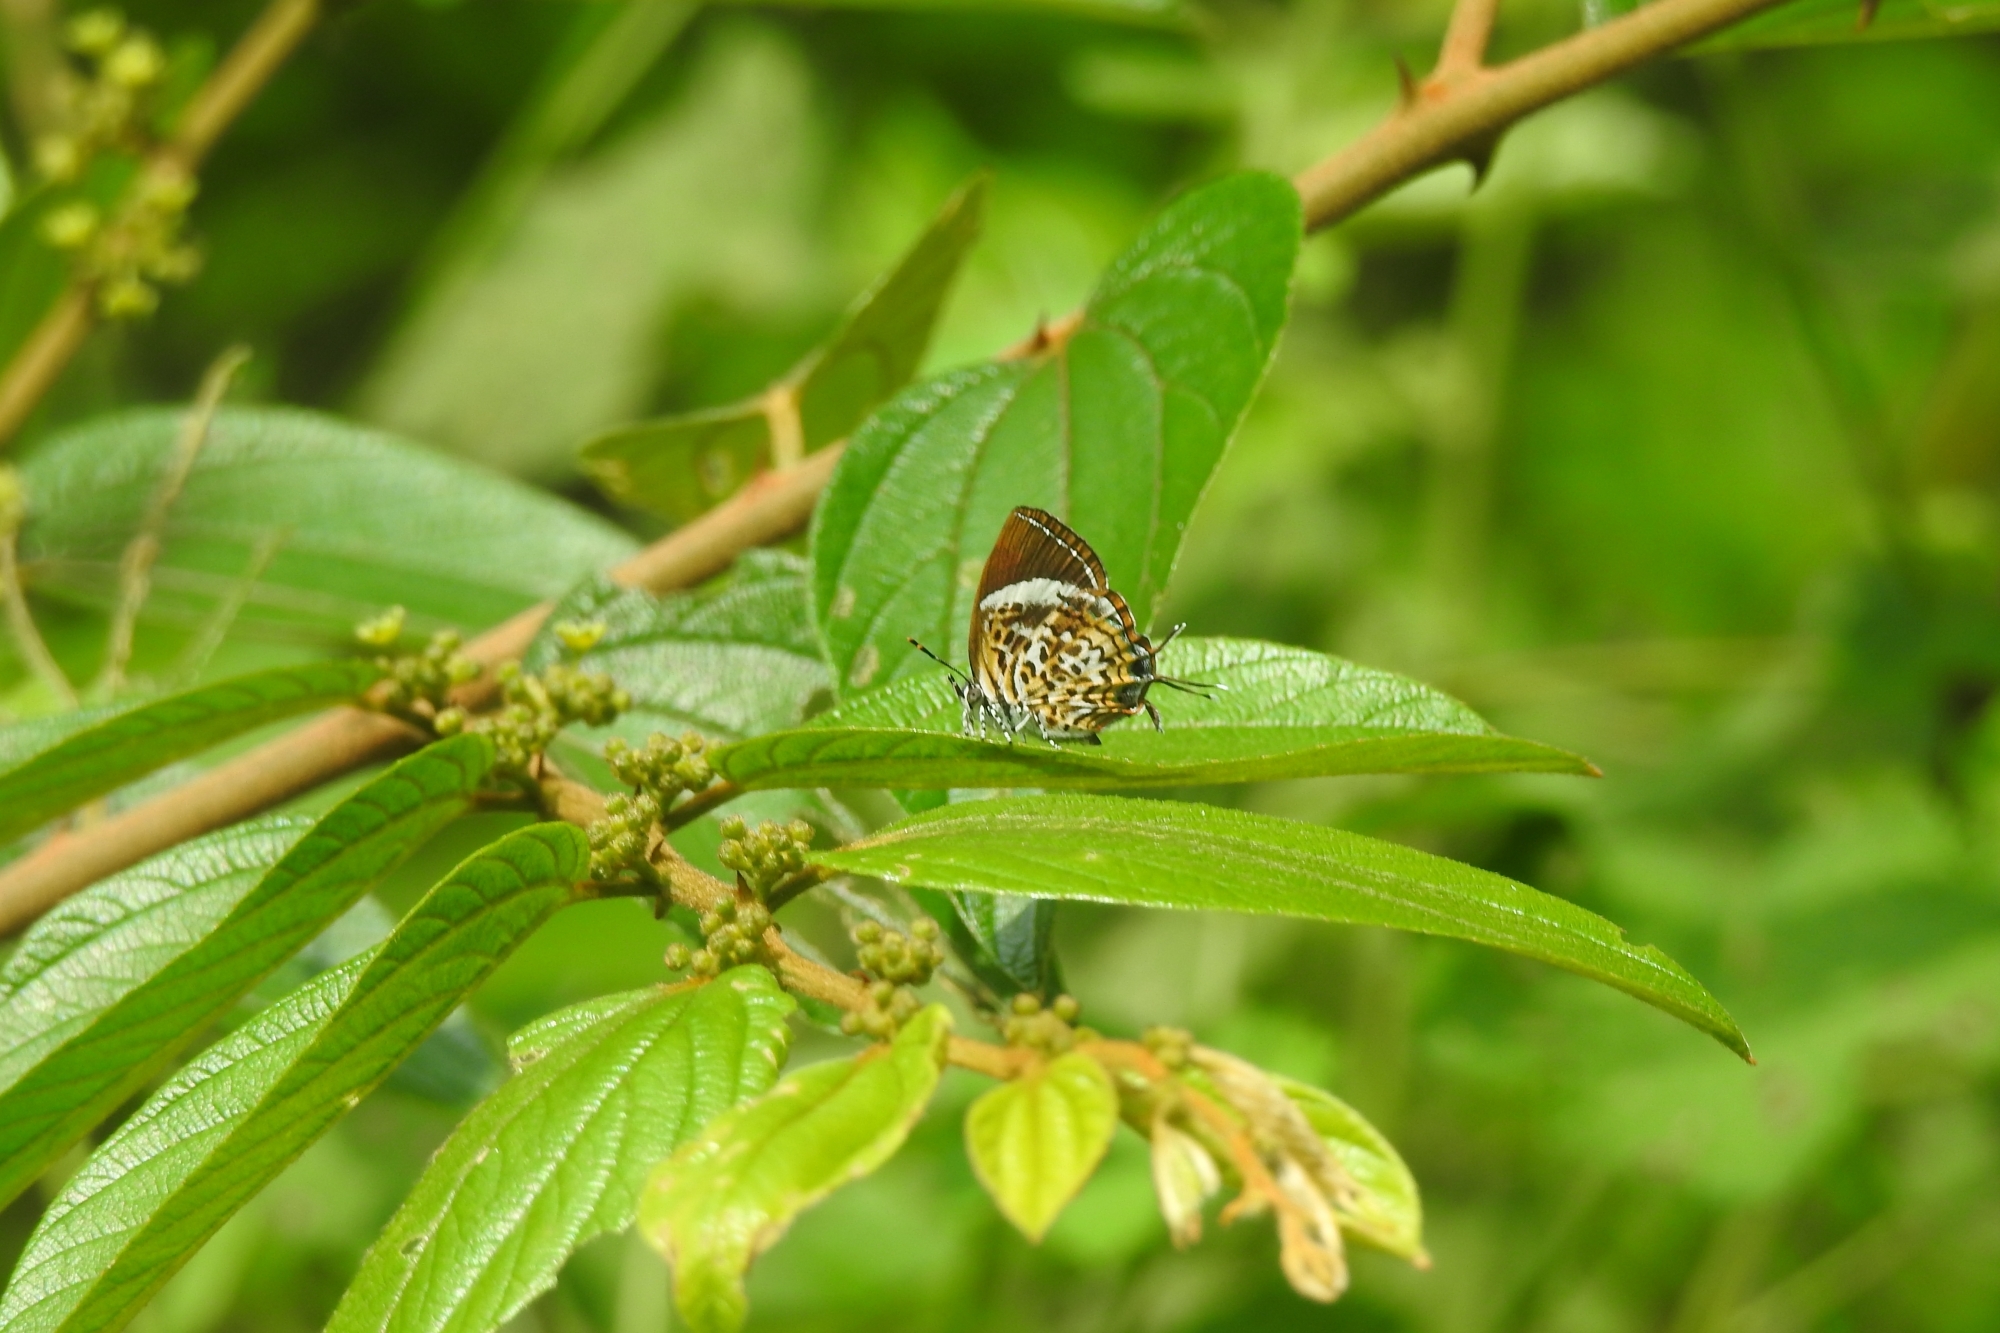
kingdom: Animalia
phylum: Arthropoda
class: Insecta
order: Lepidoptera
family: Lycaenidae
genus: Rathinda
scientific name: Rathinda amor
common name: Monkey puzzle
